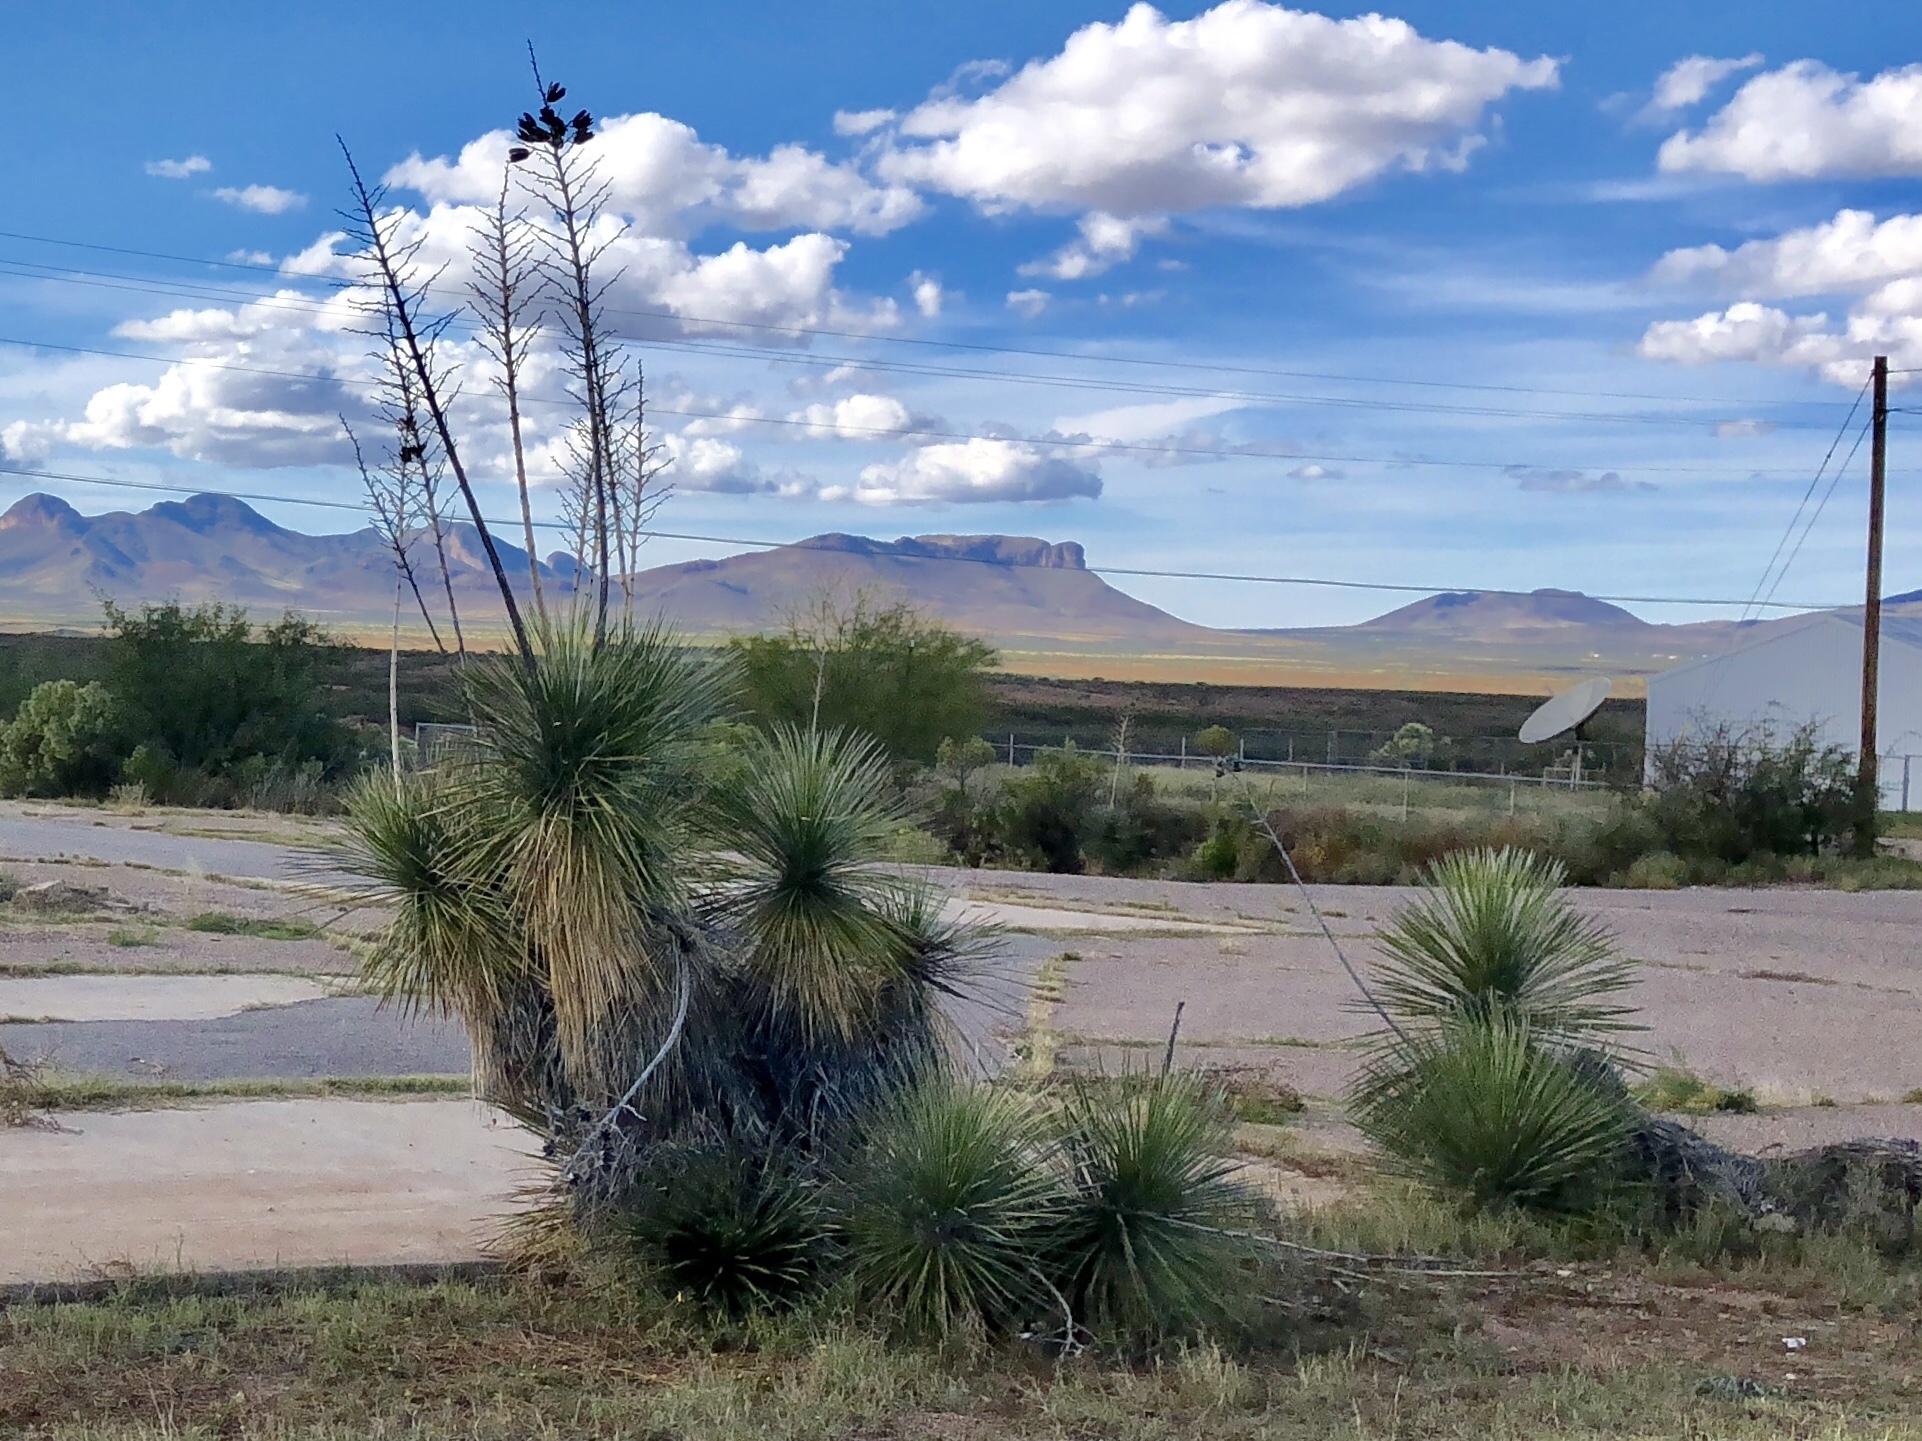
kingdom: Plantae
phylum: Tracheophyta
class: Liliopsida
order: Asparagales
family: Asparagaceae
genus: Yucca
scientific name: Yucca elata
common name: Palmella
